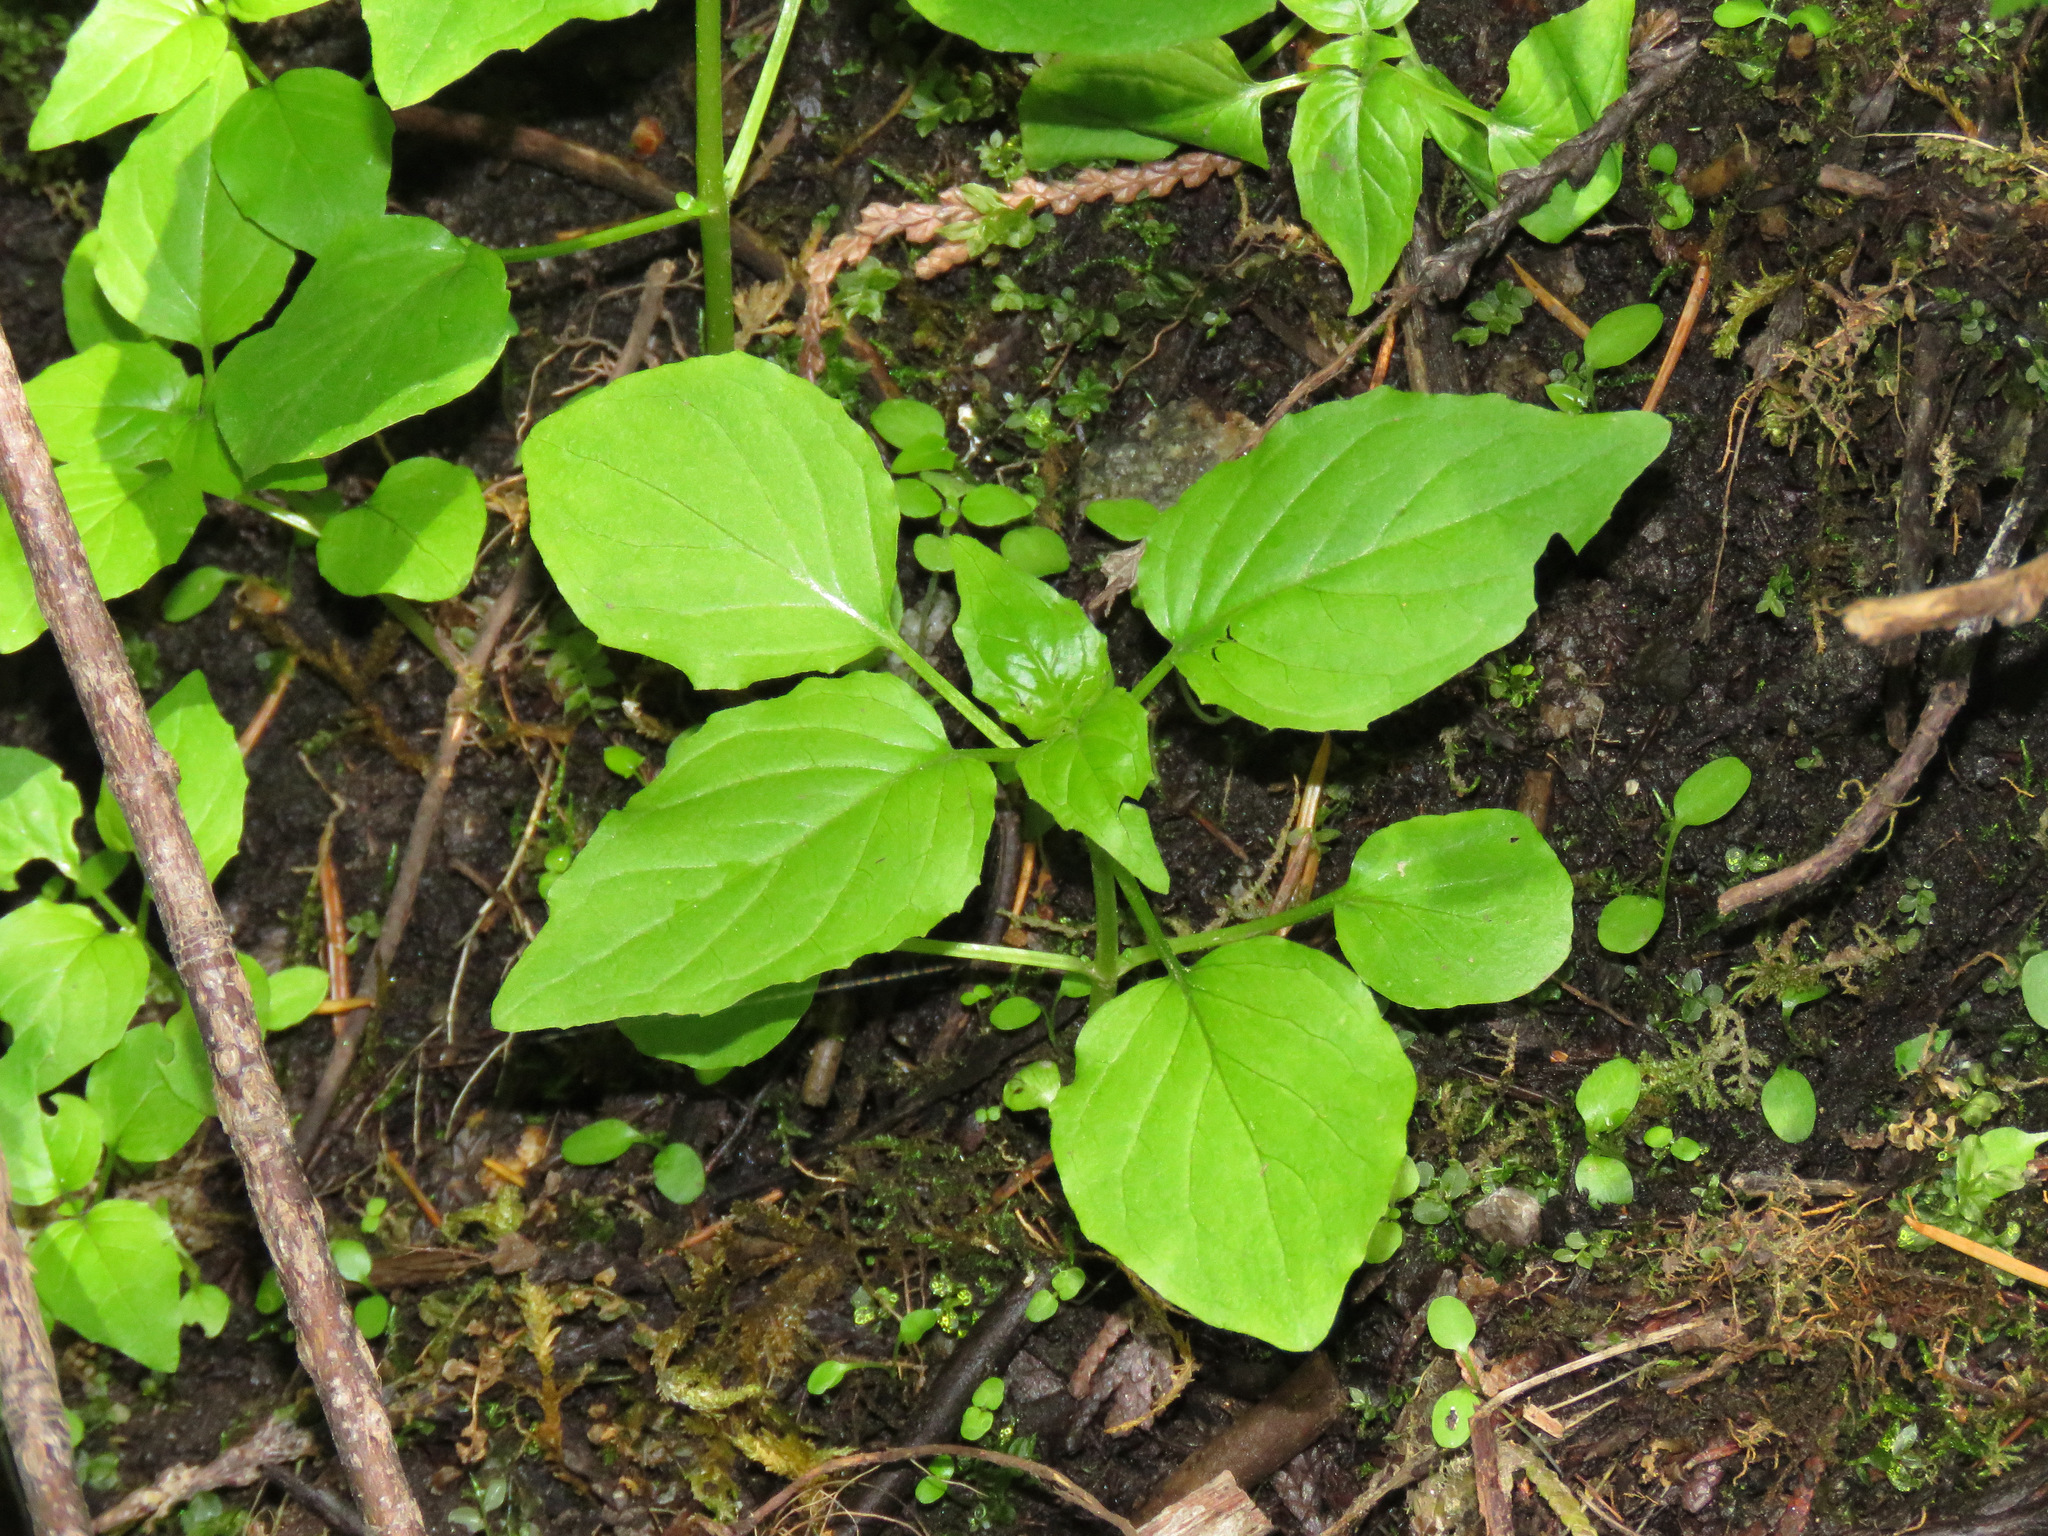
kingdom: Plantae
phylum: Tracheophyta
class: Magnoliopsida
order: Myrtales
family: Onagraceae
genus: Circaea
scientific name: Circaea alpina
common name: Alpine enchanter's-nightshade
